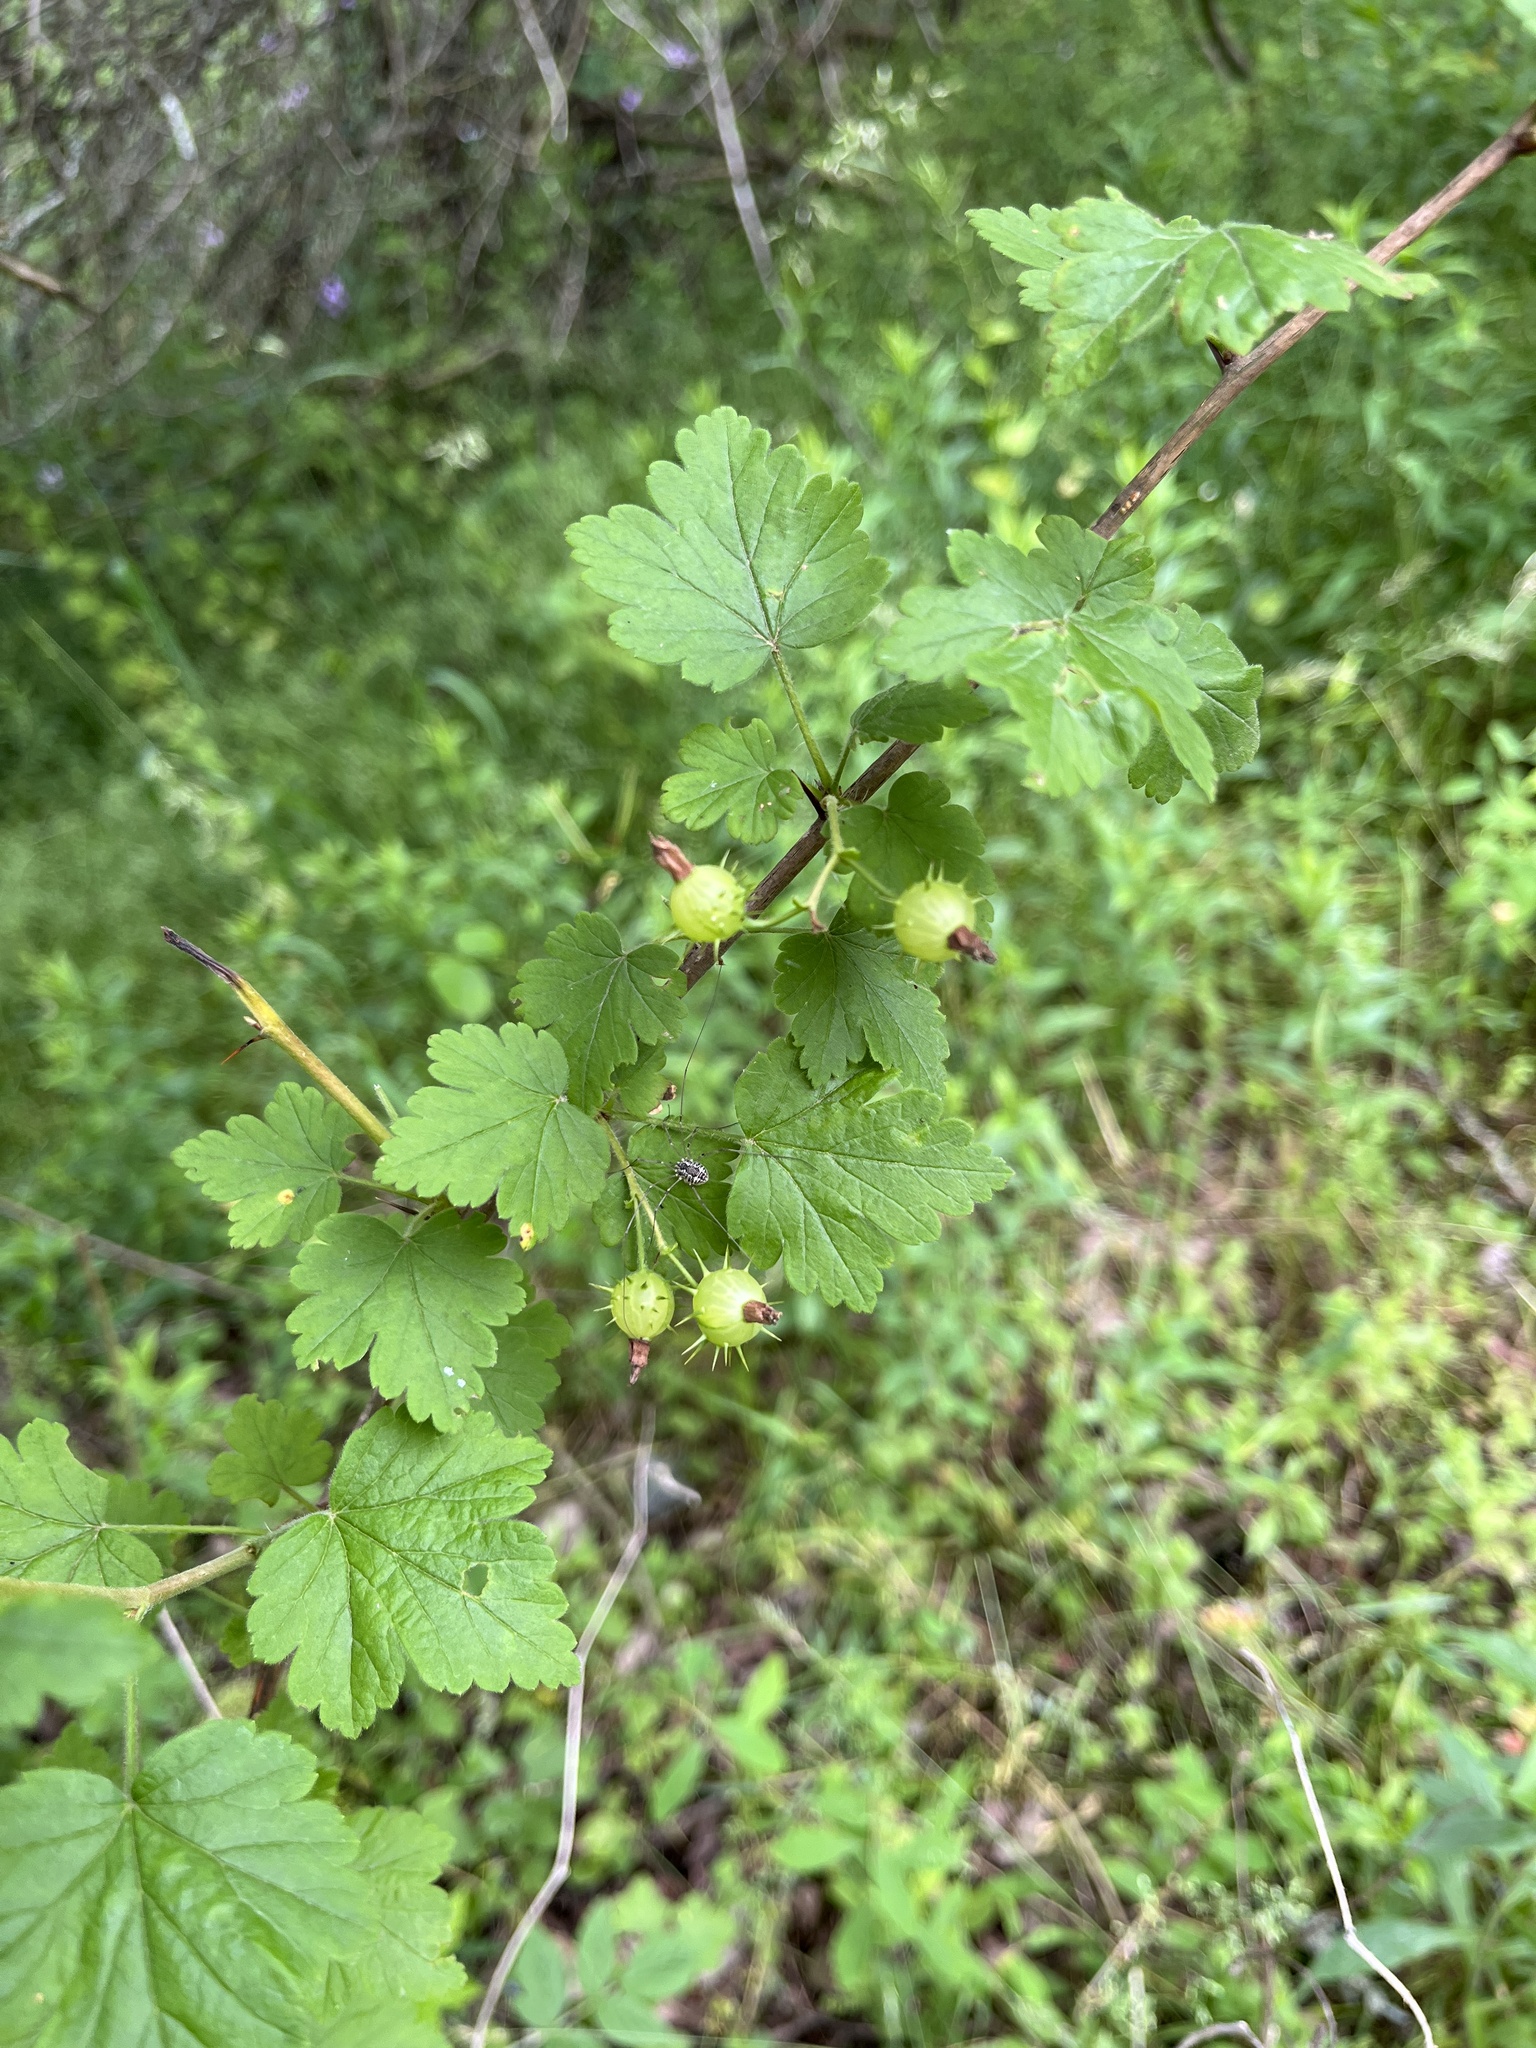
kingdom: Plantae
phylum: Tracheophyta
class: Magnoliopsida
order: Saxifragales
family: Grossulariaceae
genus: Ribes
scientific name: Ribes cynosbati
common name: American gooseberry
